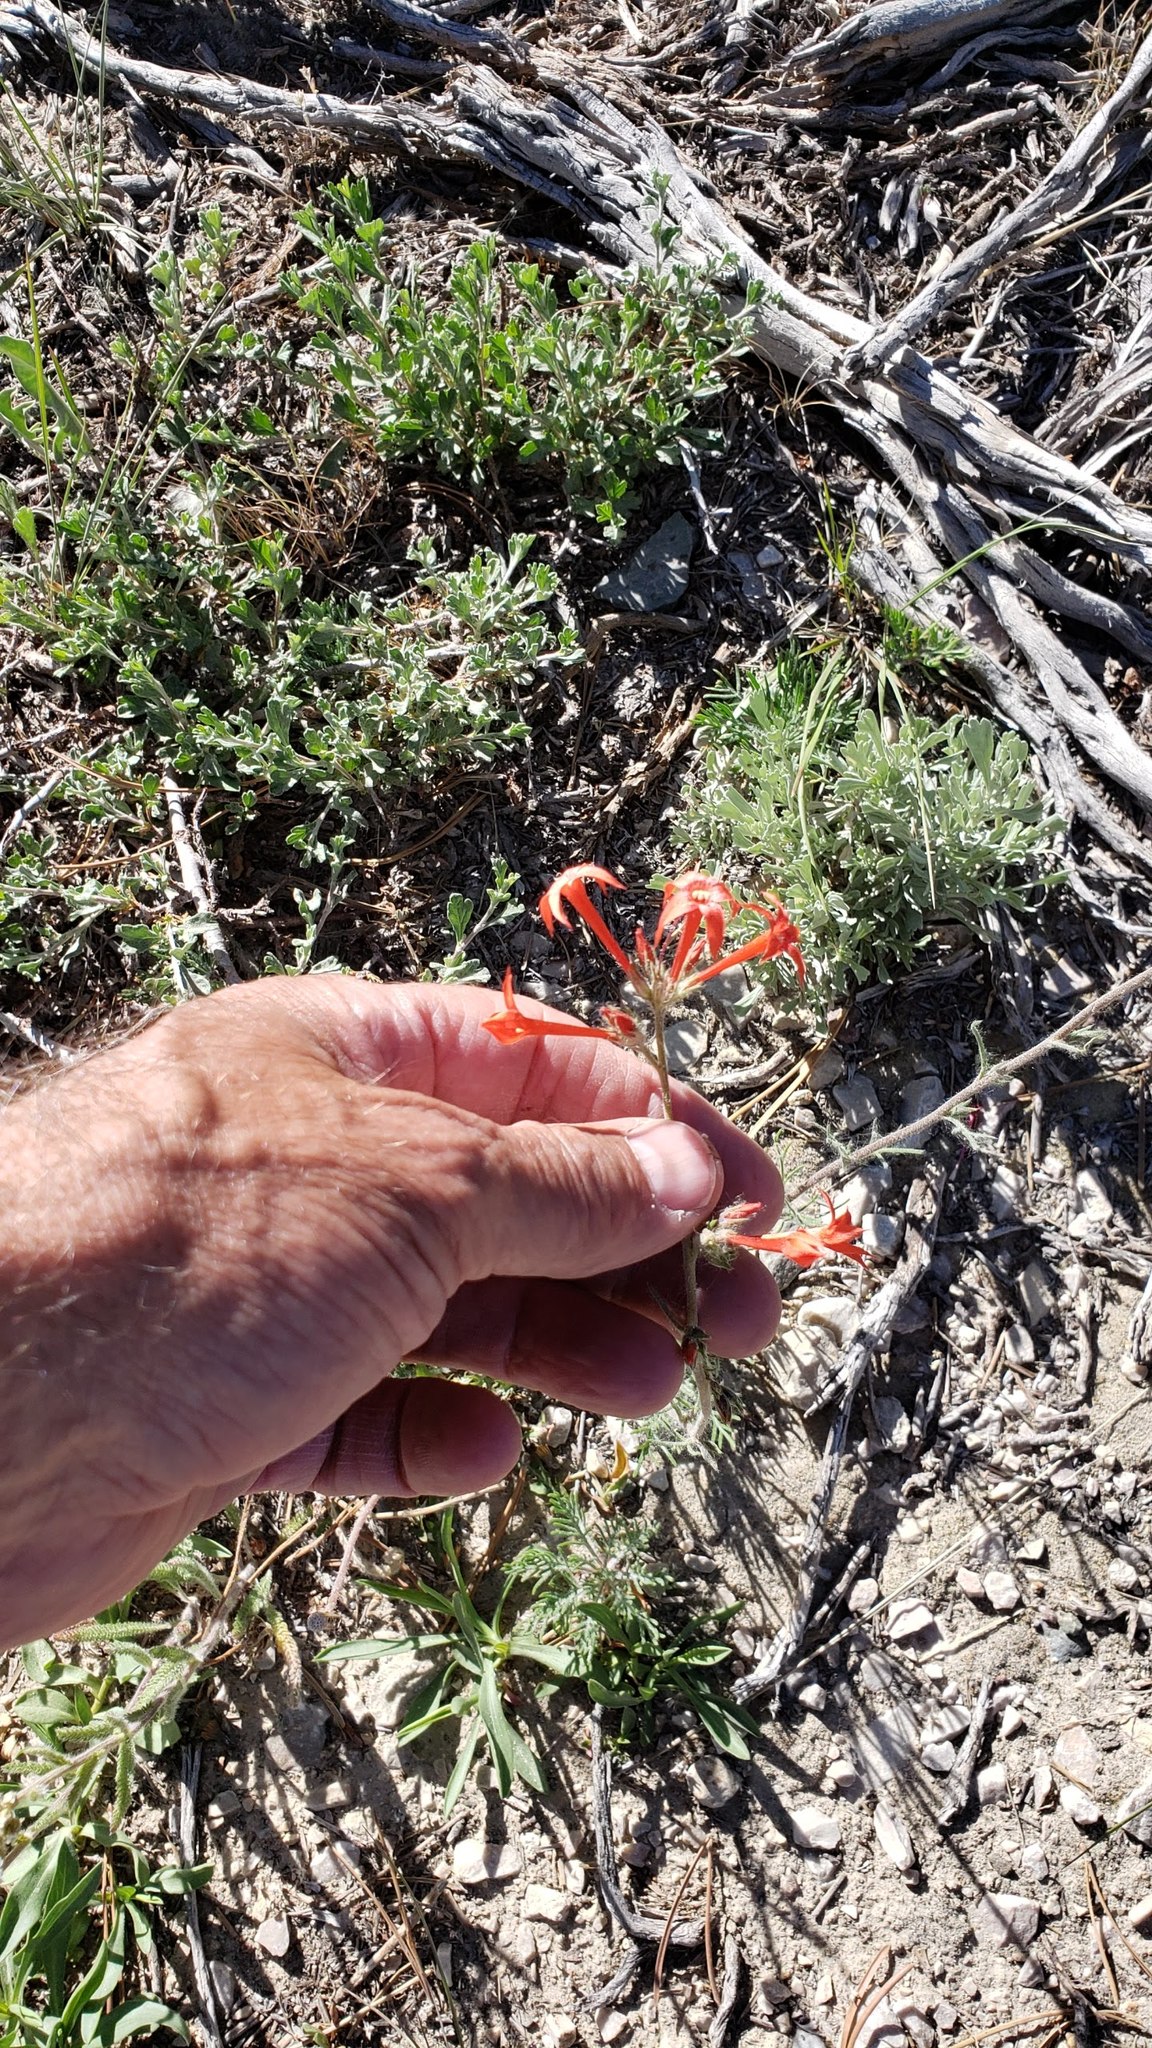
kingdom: Plantae
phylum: Tracheophyta
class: Magnoliopsida
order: Ericales
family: Polemoniaceae
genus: Ipomopsis
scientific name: Ipomopsis aggregata
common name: Scarlet gilia
